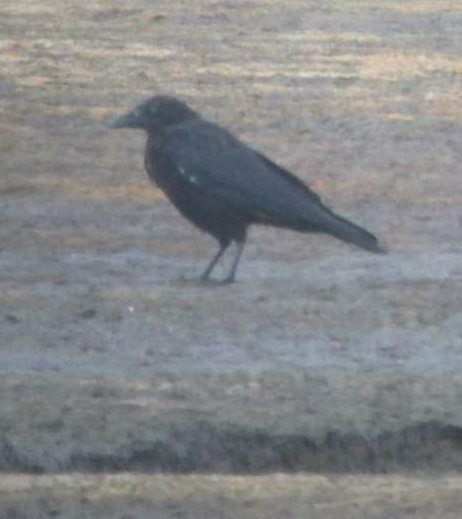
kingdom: Animalia
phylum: Chordata
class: Aves
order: Passeriformes
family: Corvidae
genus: Corvus
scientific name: Corvus corone
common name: Carrion crow
